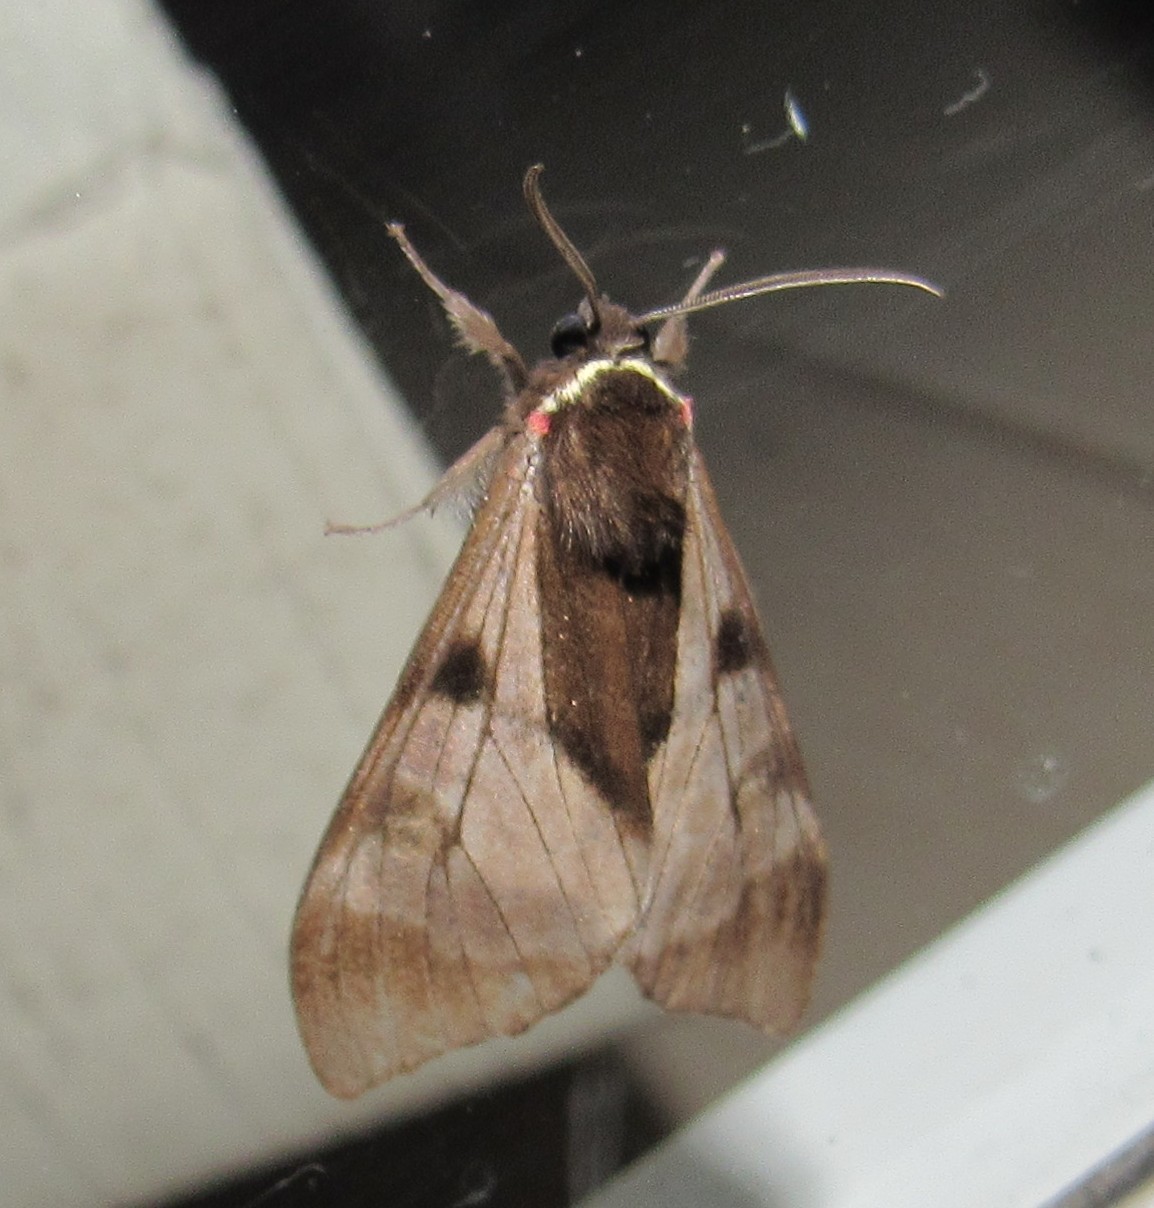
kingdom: Animalia
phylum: Arthropoda
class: Insecta
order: Lepidoptera
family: Erebidae
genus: Dysschema
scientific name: Dysschema subapicalis
